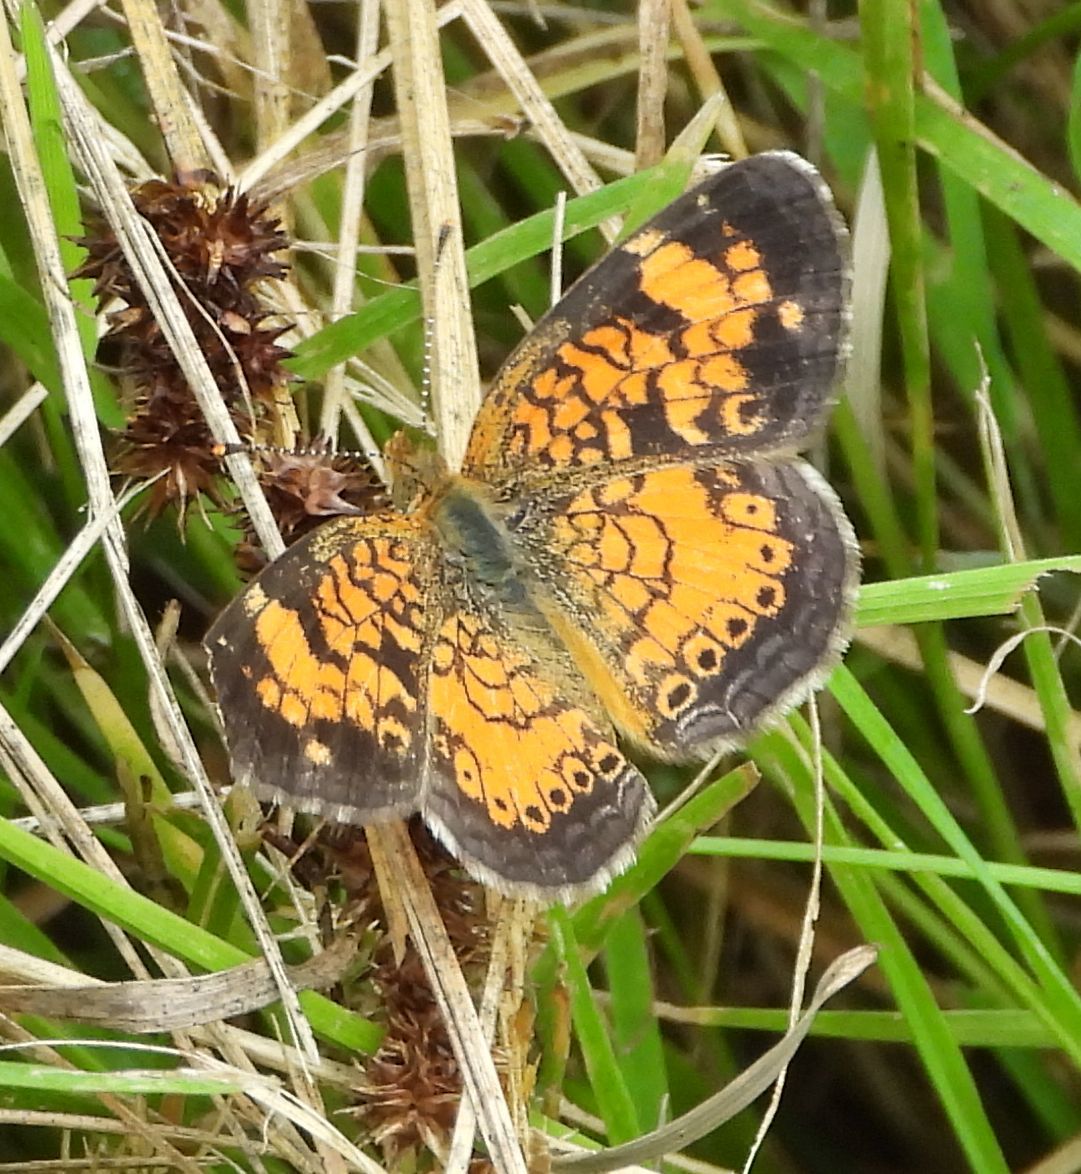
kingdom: Animalia
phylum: Arthropoda
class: Insecta
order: Lepidoptera
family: Nymphalidae
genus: Phyciodes
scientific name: Phyciodes tharos
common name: Pearl crescent
